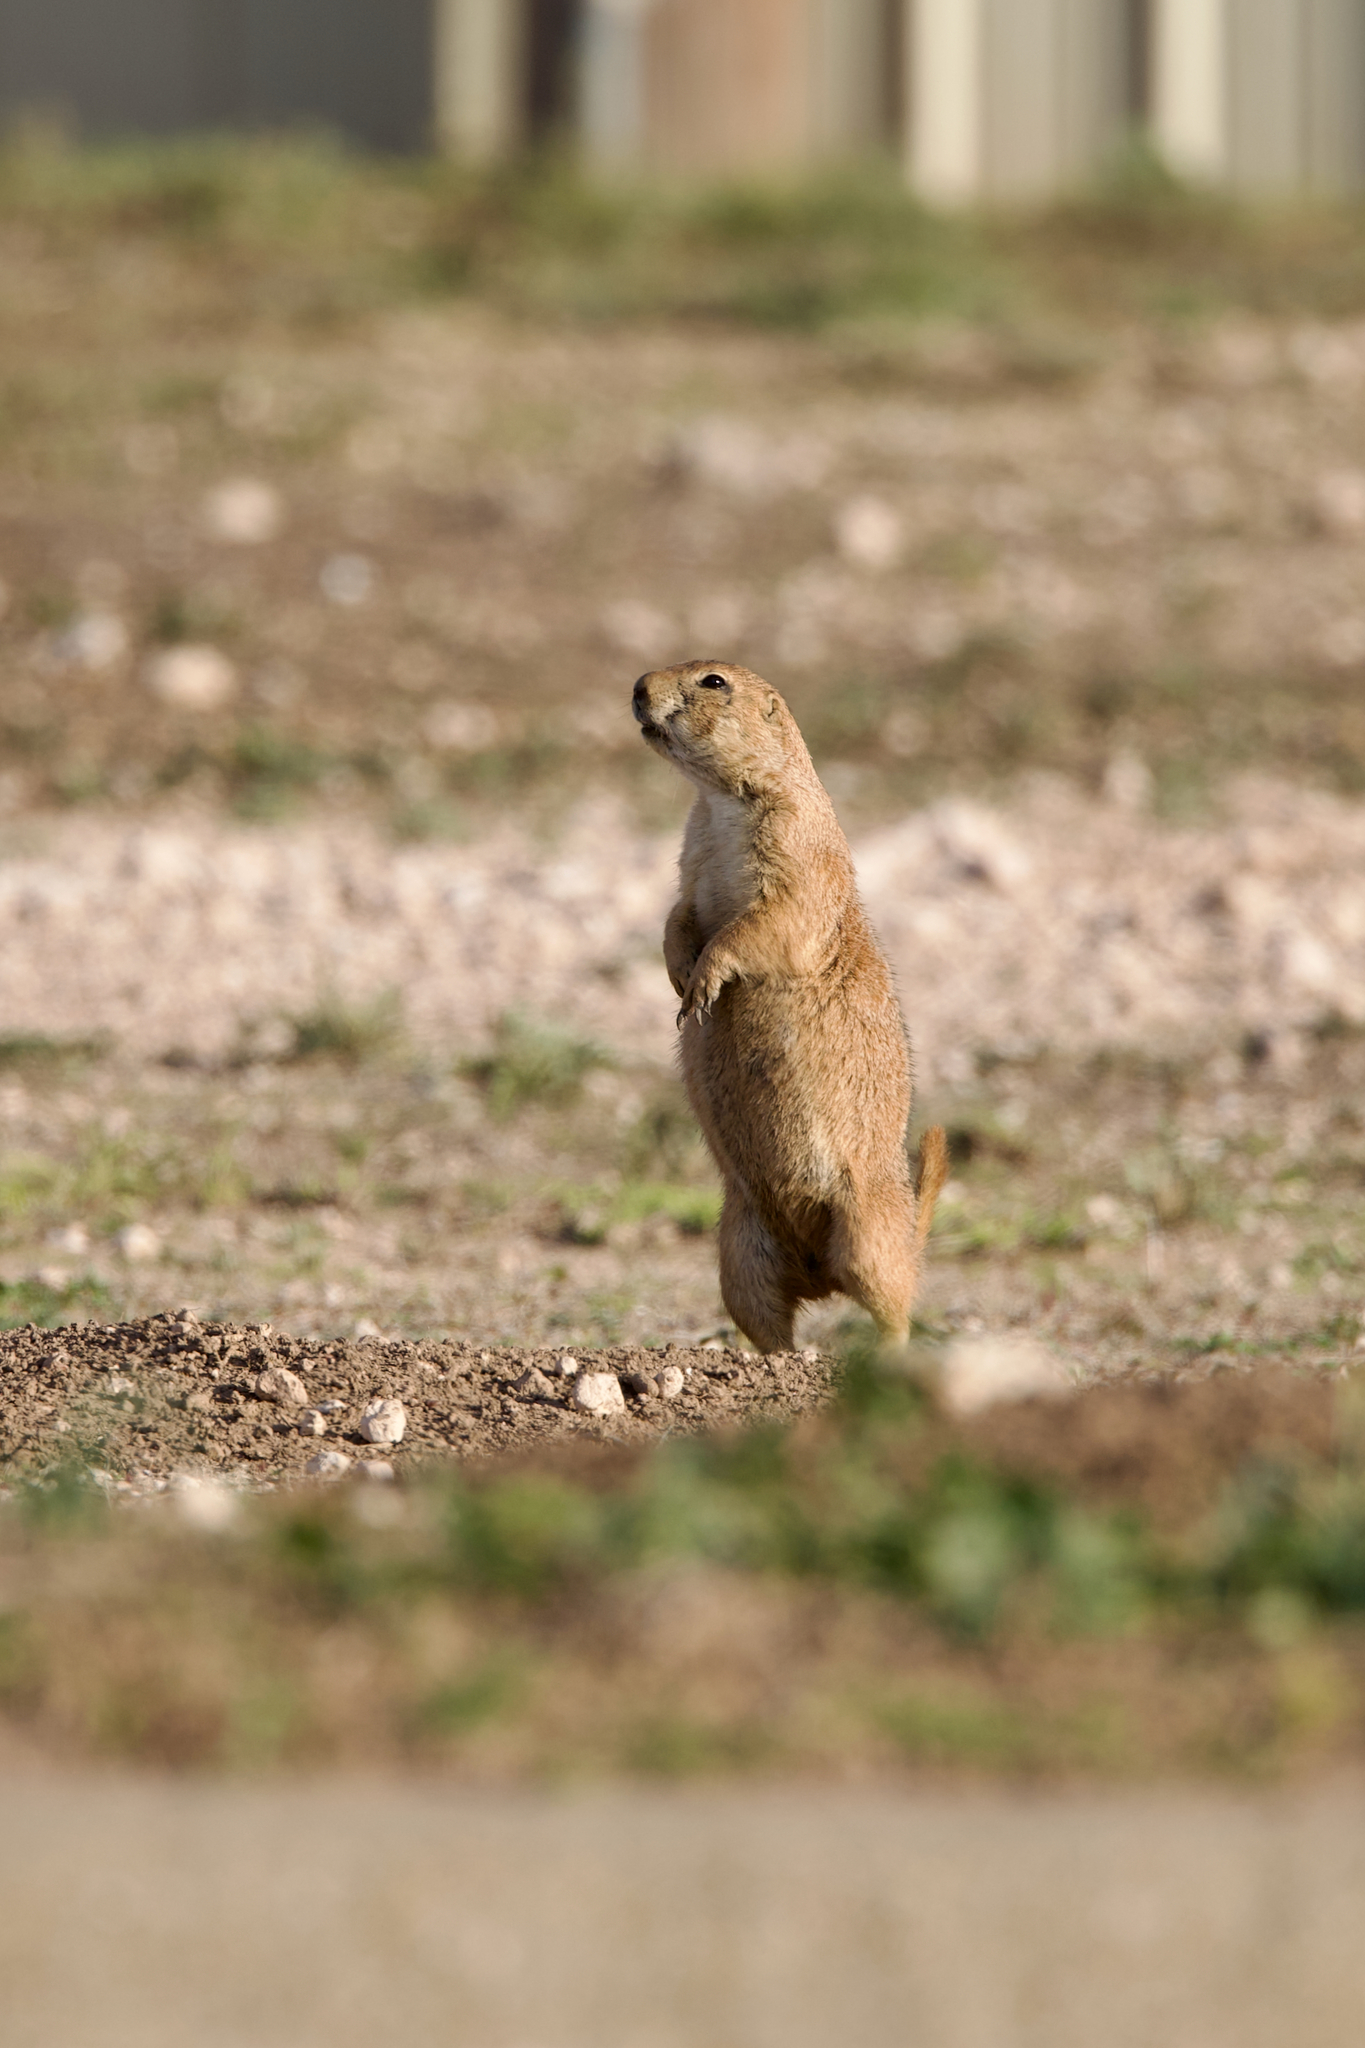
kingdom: Animalia
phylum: Chordata
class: Mammalia
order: Rodentia
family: Sciuridae
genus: Cynomys
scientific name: Cynomys ludovicianus
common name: Black-tailed prairie dog
